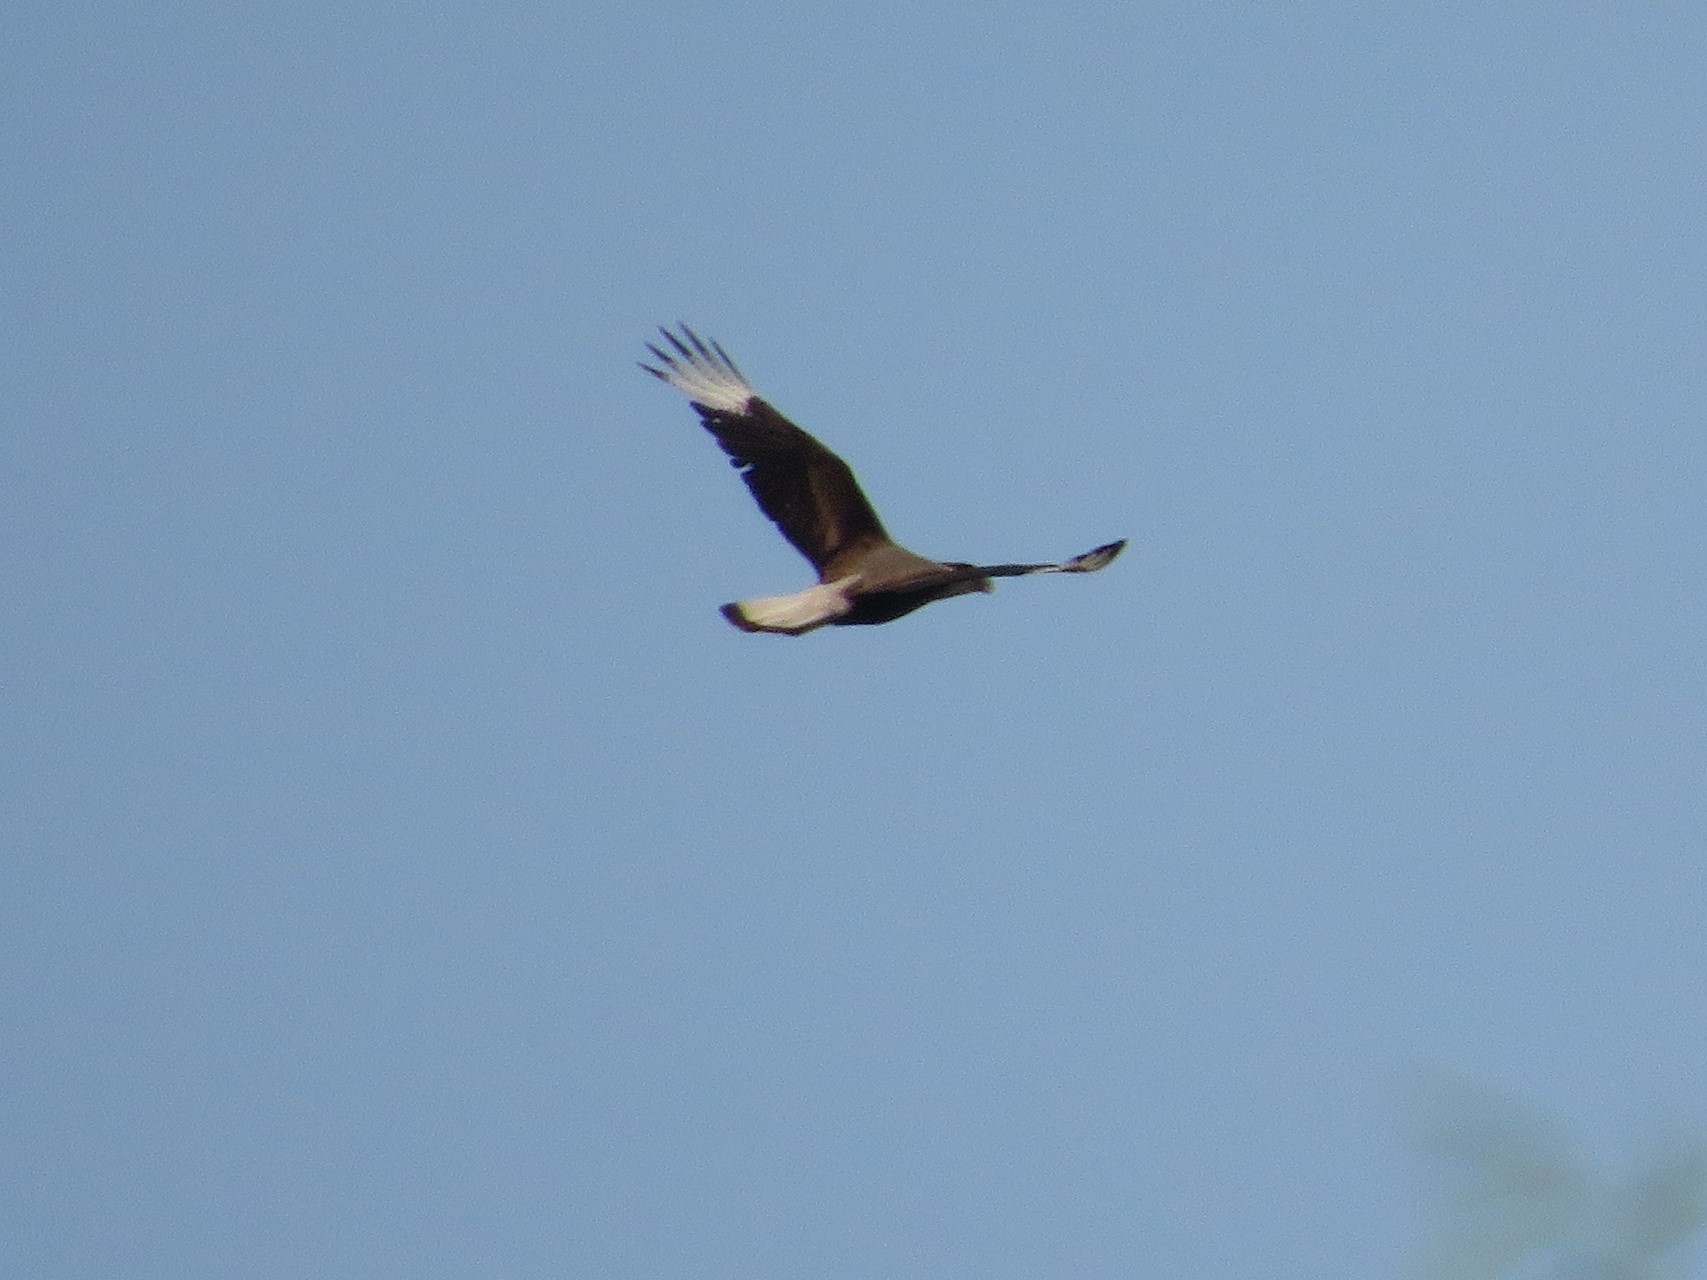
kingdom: Animalia
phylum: Chordata
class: Aves
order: Falconiformes
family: Falconidae
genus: Caracara
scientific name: Caracara plancus
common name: Southern caracara
